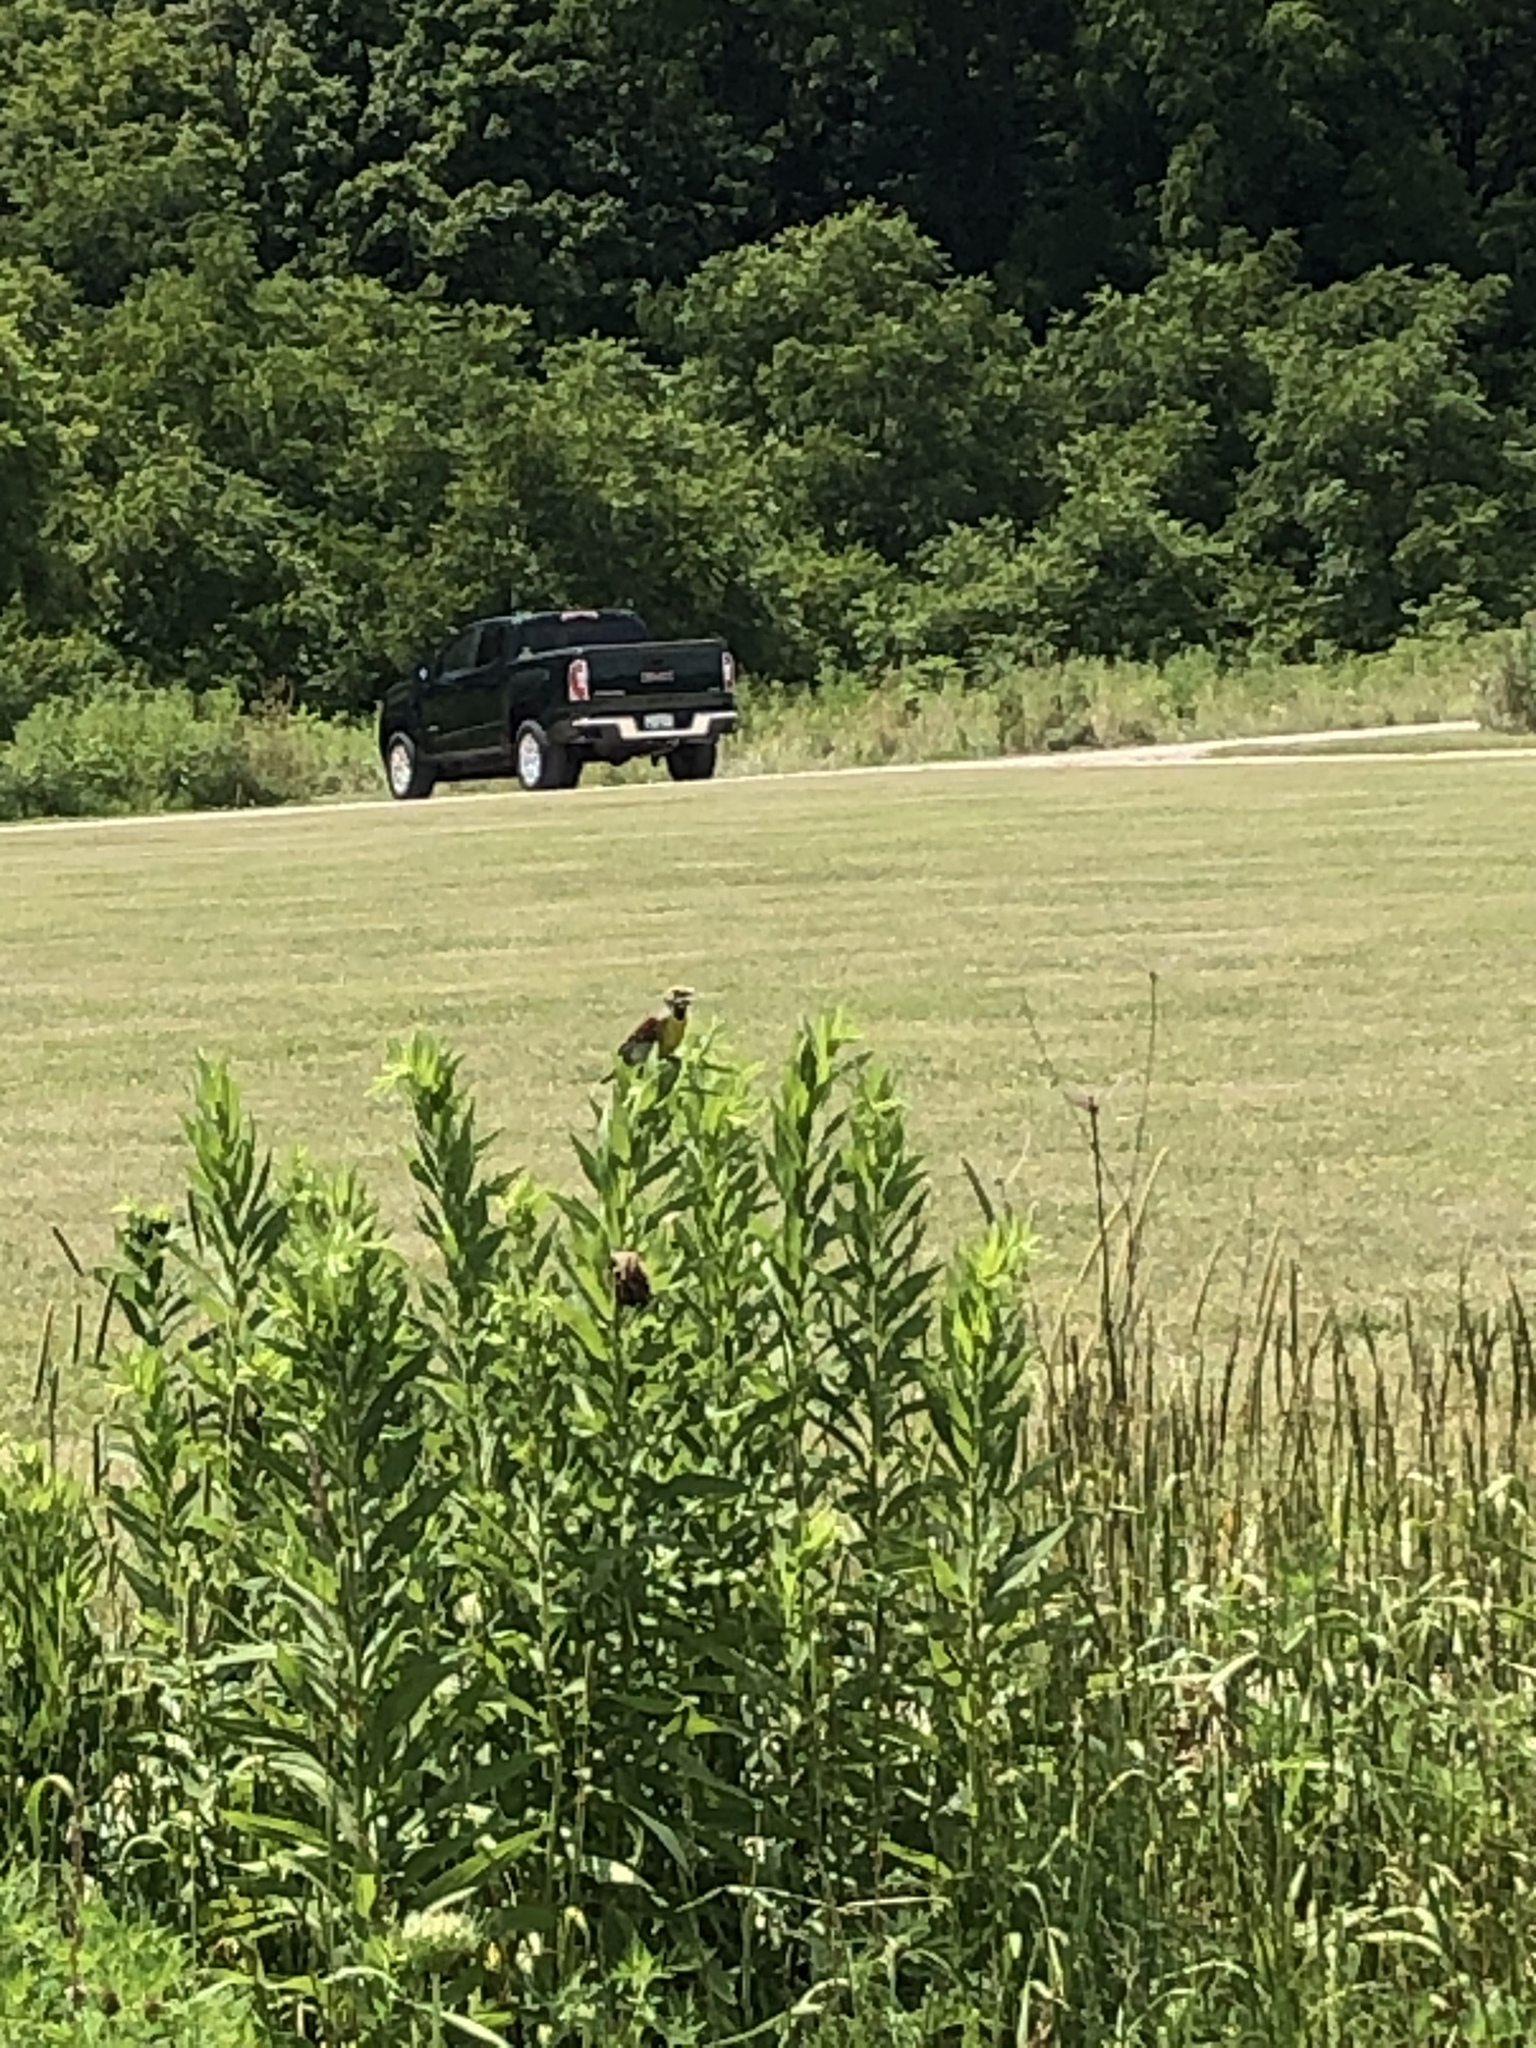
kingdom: Animalia
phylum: Chordata
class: Aves
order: Passeriformes
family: Cardinalidae
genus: Spiza
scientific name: Spiza americana
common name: Dickcissel
